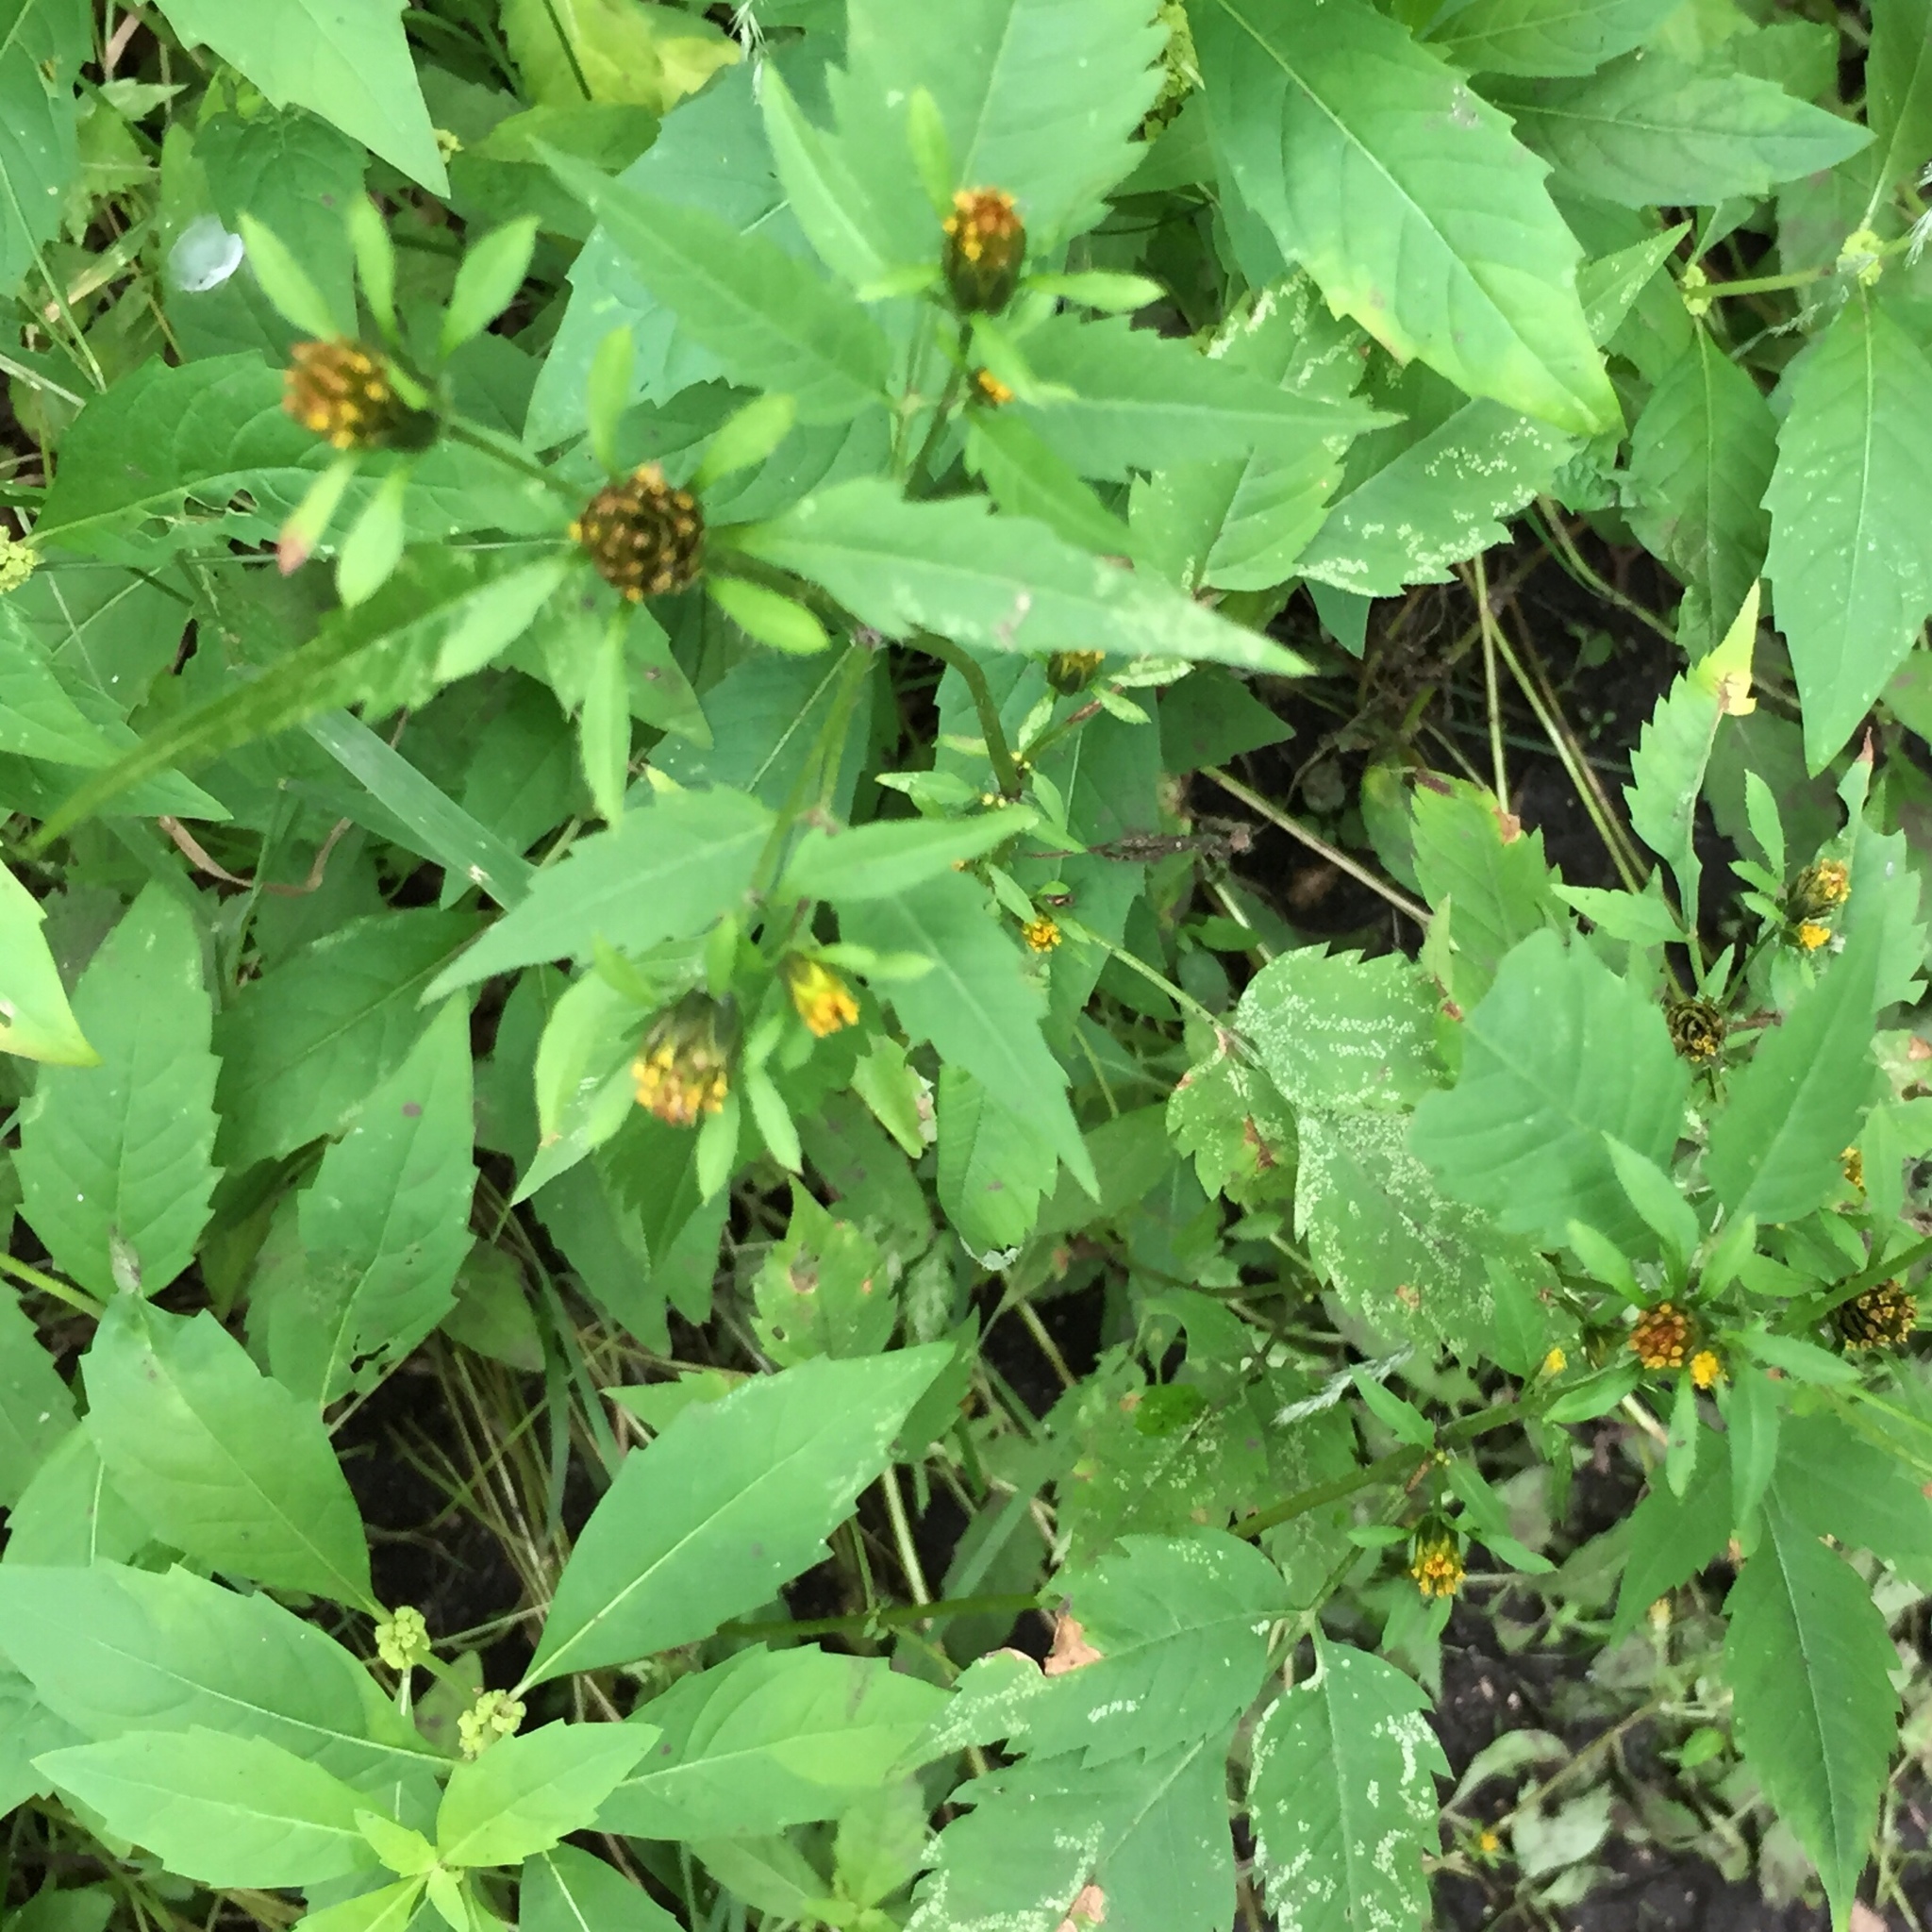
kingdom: Plantae
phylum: Tracheophyta
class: Magnoliopsida
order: Asterales
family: Asteraceae
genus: Bidens
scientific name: Bidens frondosa
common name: Beggarticks
